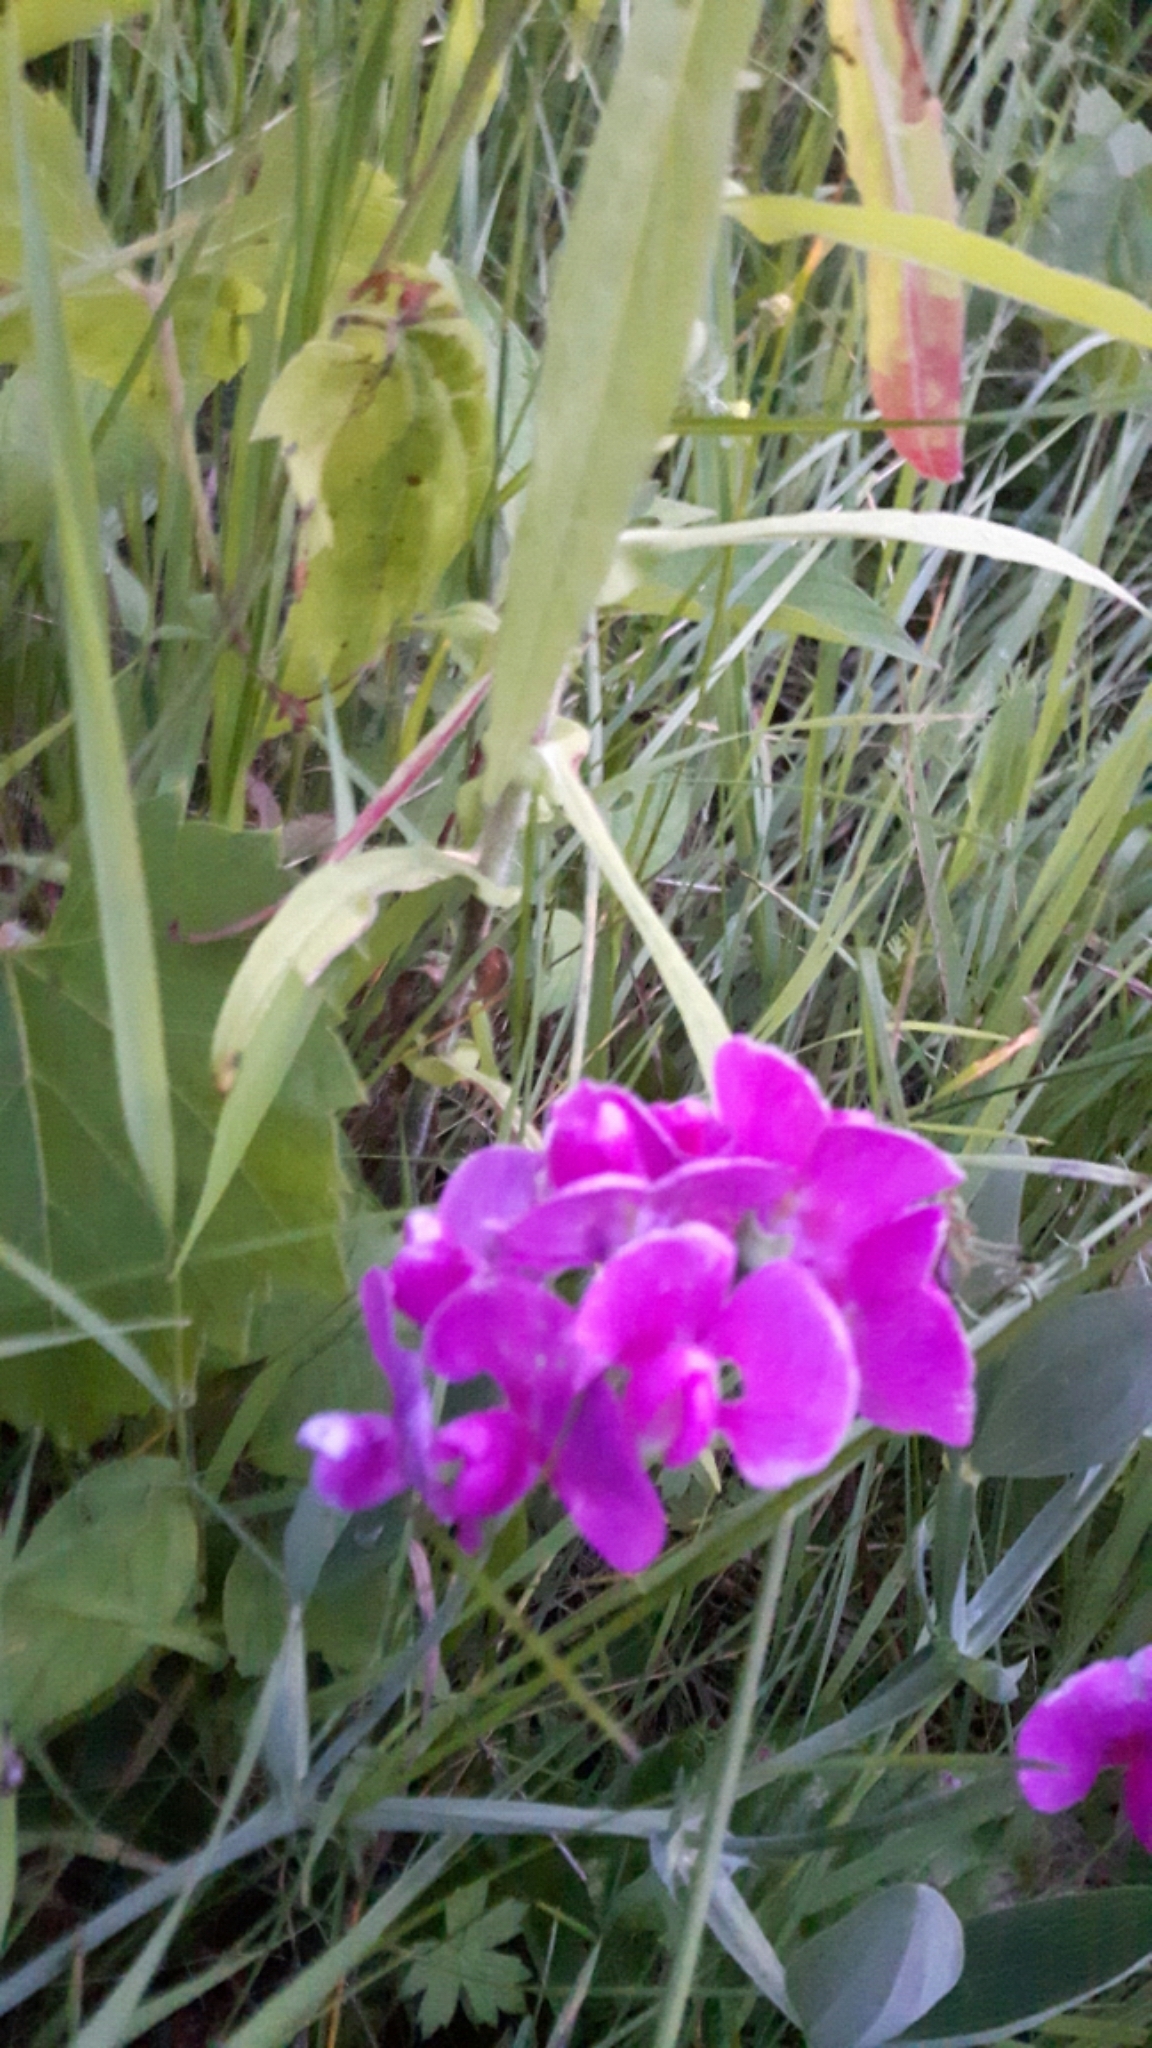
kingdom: Plantae
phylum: Tracheophyta
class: Magnoliopsida
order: Fabales
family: Fabaceae
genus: Lathyrus
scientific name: Lathyrus latifolius
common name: Perennial pea
